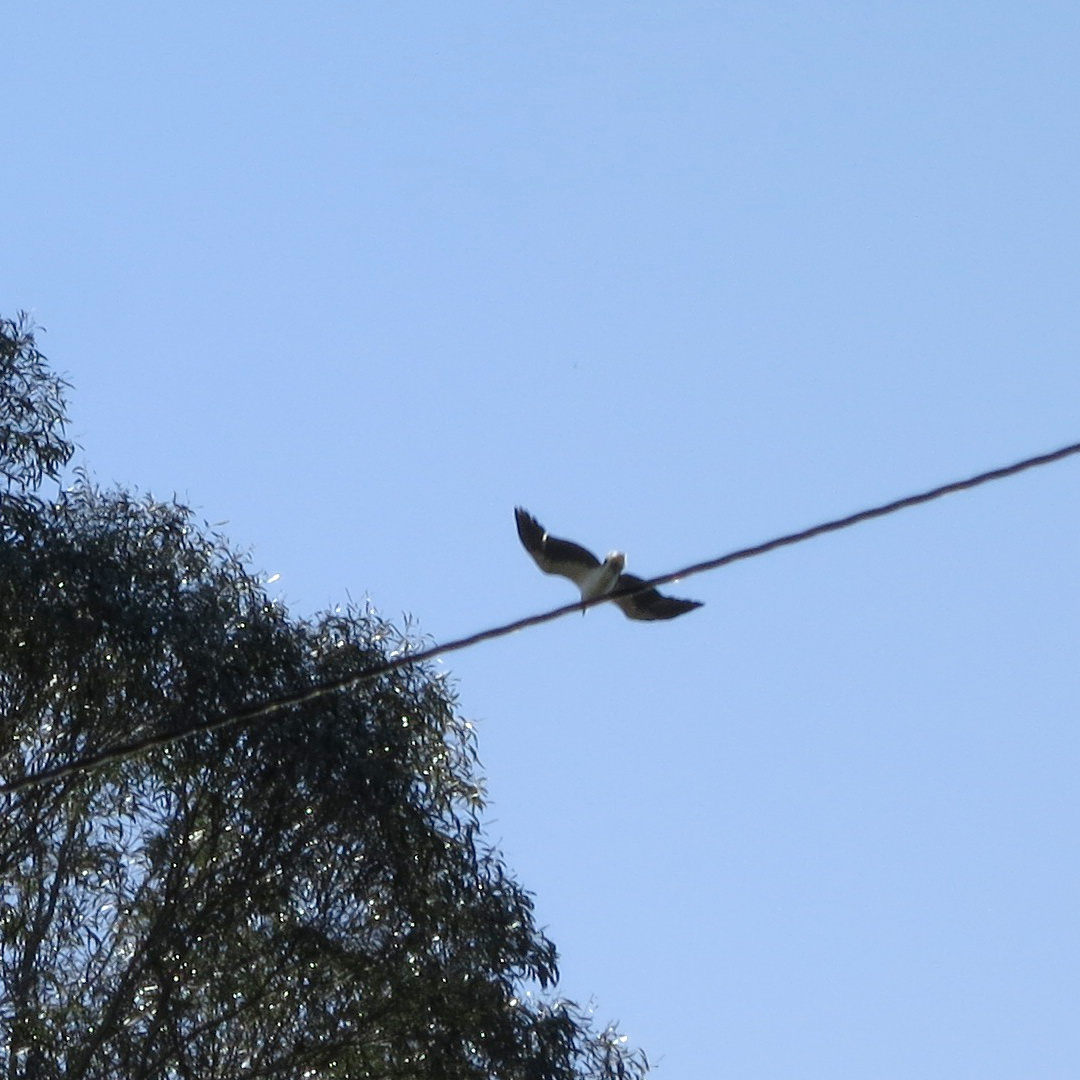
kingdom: Animalia
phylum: Chordata
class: Aves
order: Accipitriformes
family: Accipitridae
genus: Haliaeetus
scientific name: Haliaeetus leucogaster
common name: White-bellied sea eagle
